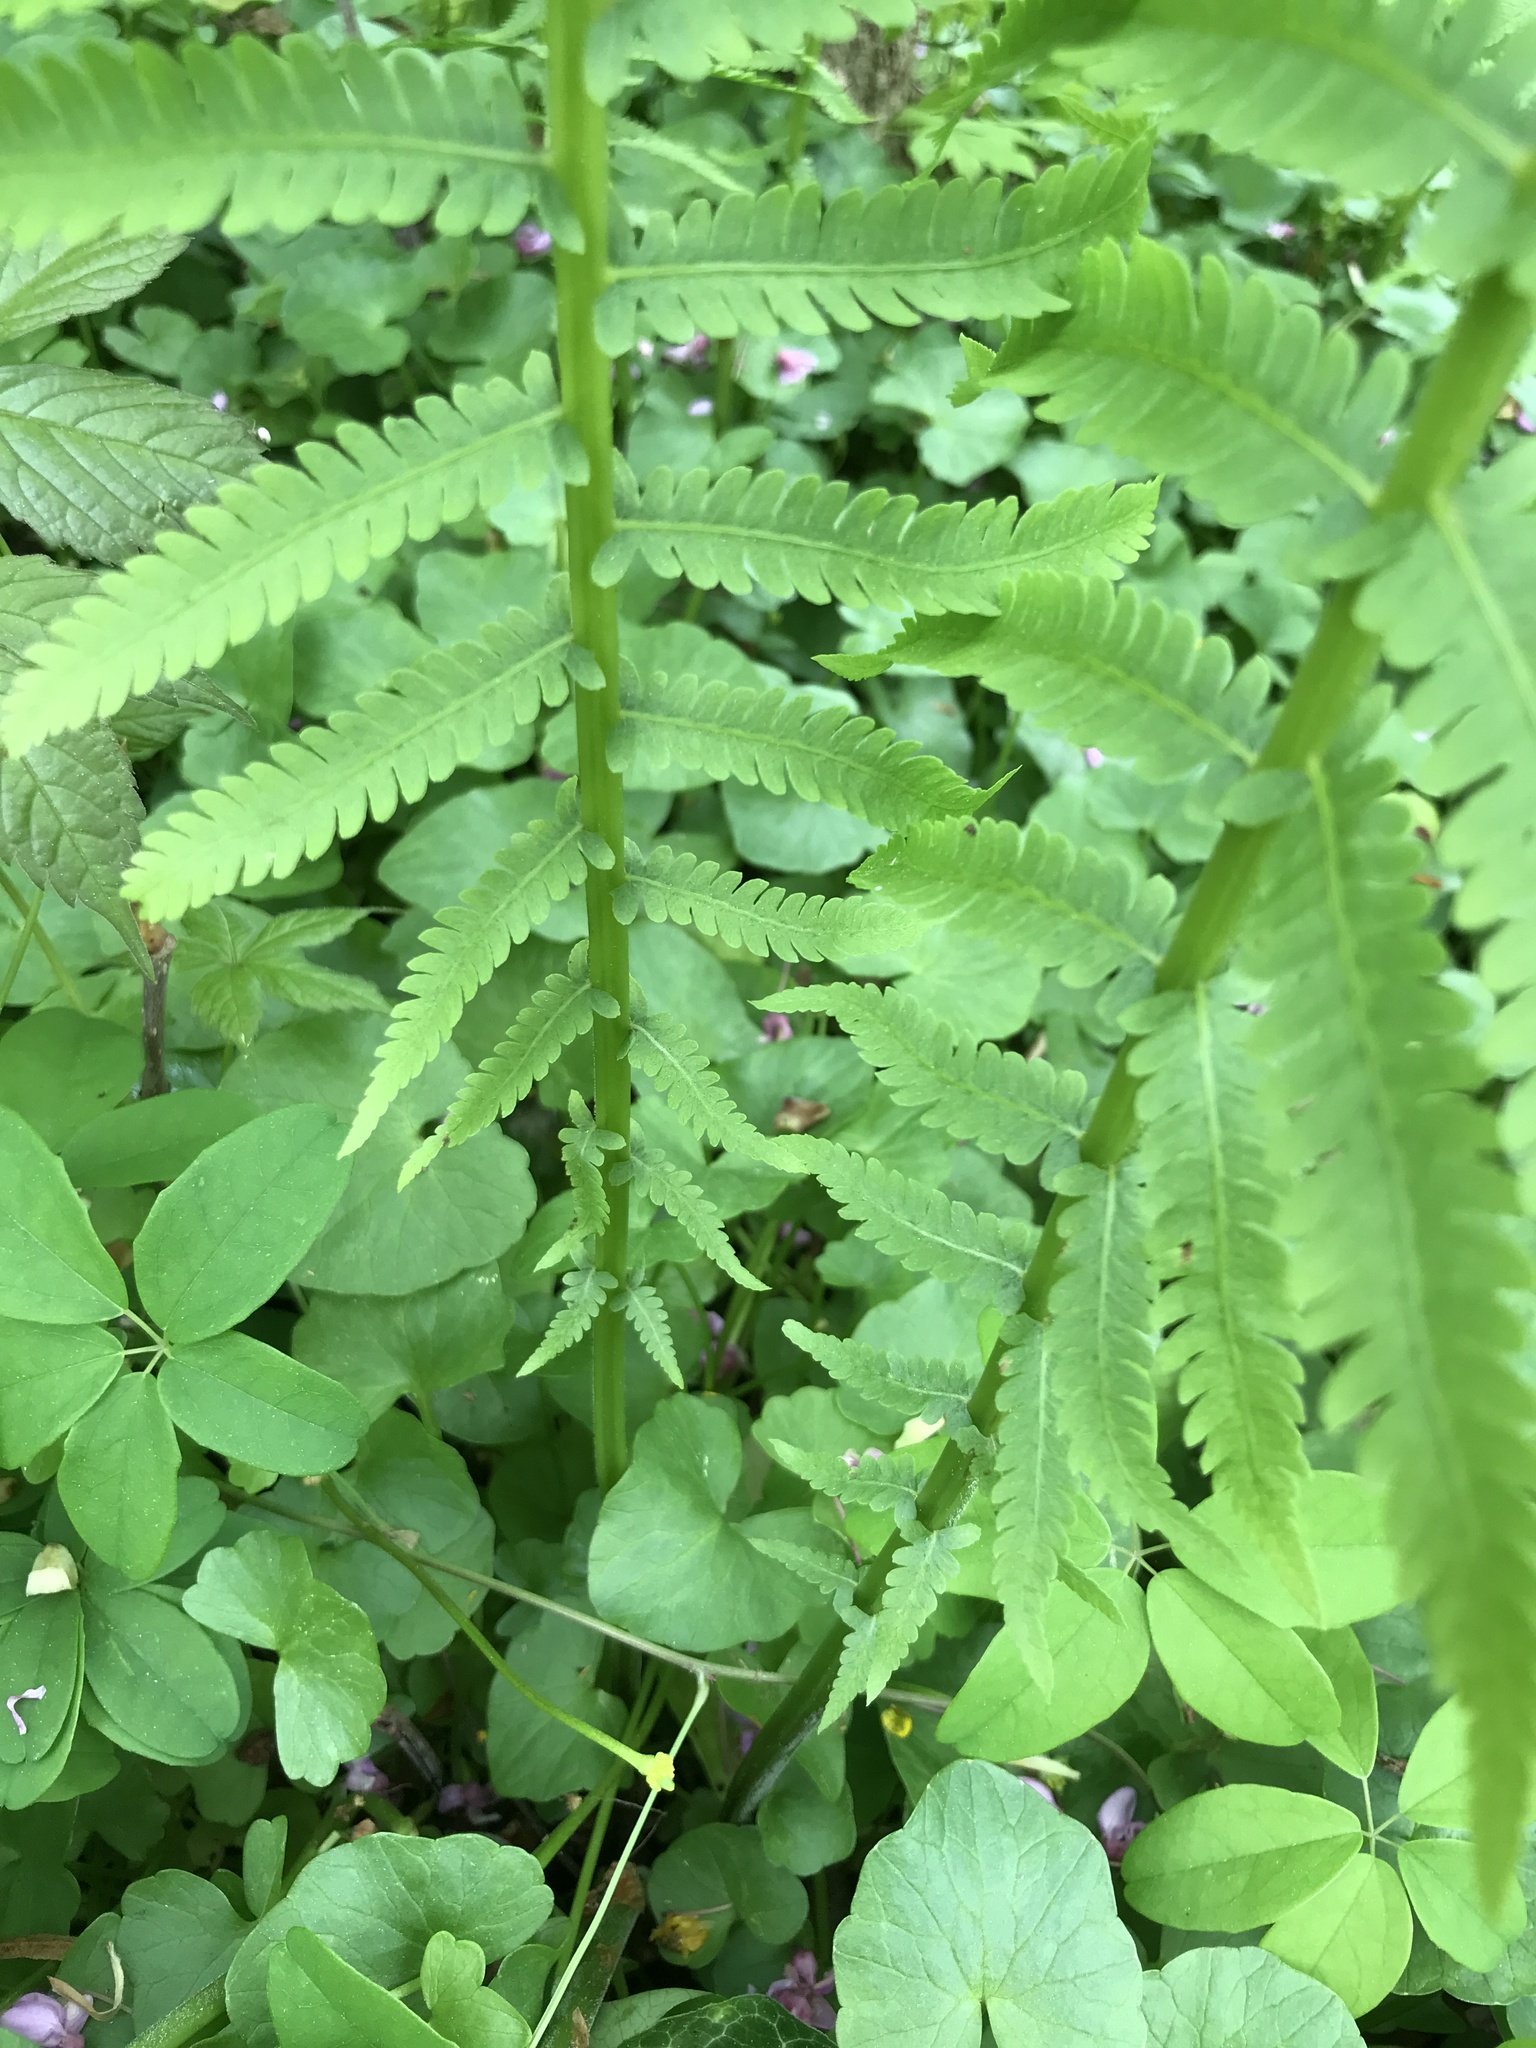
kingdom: Plantae
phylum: Tracheophyta
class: Polypodiopsida
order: Polypodiales
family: Onocleaceae
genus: Matteuccia
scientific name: Matteuccia struthiopteris
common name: Ostrich fern
